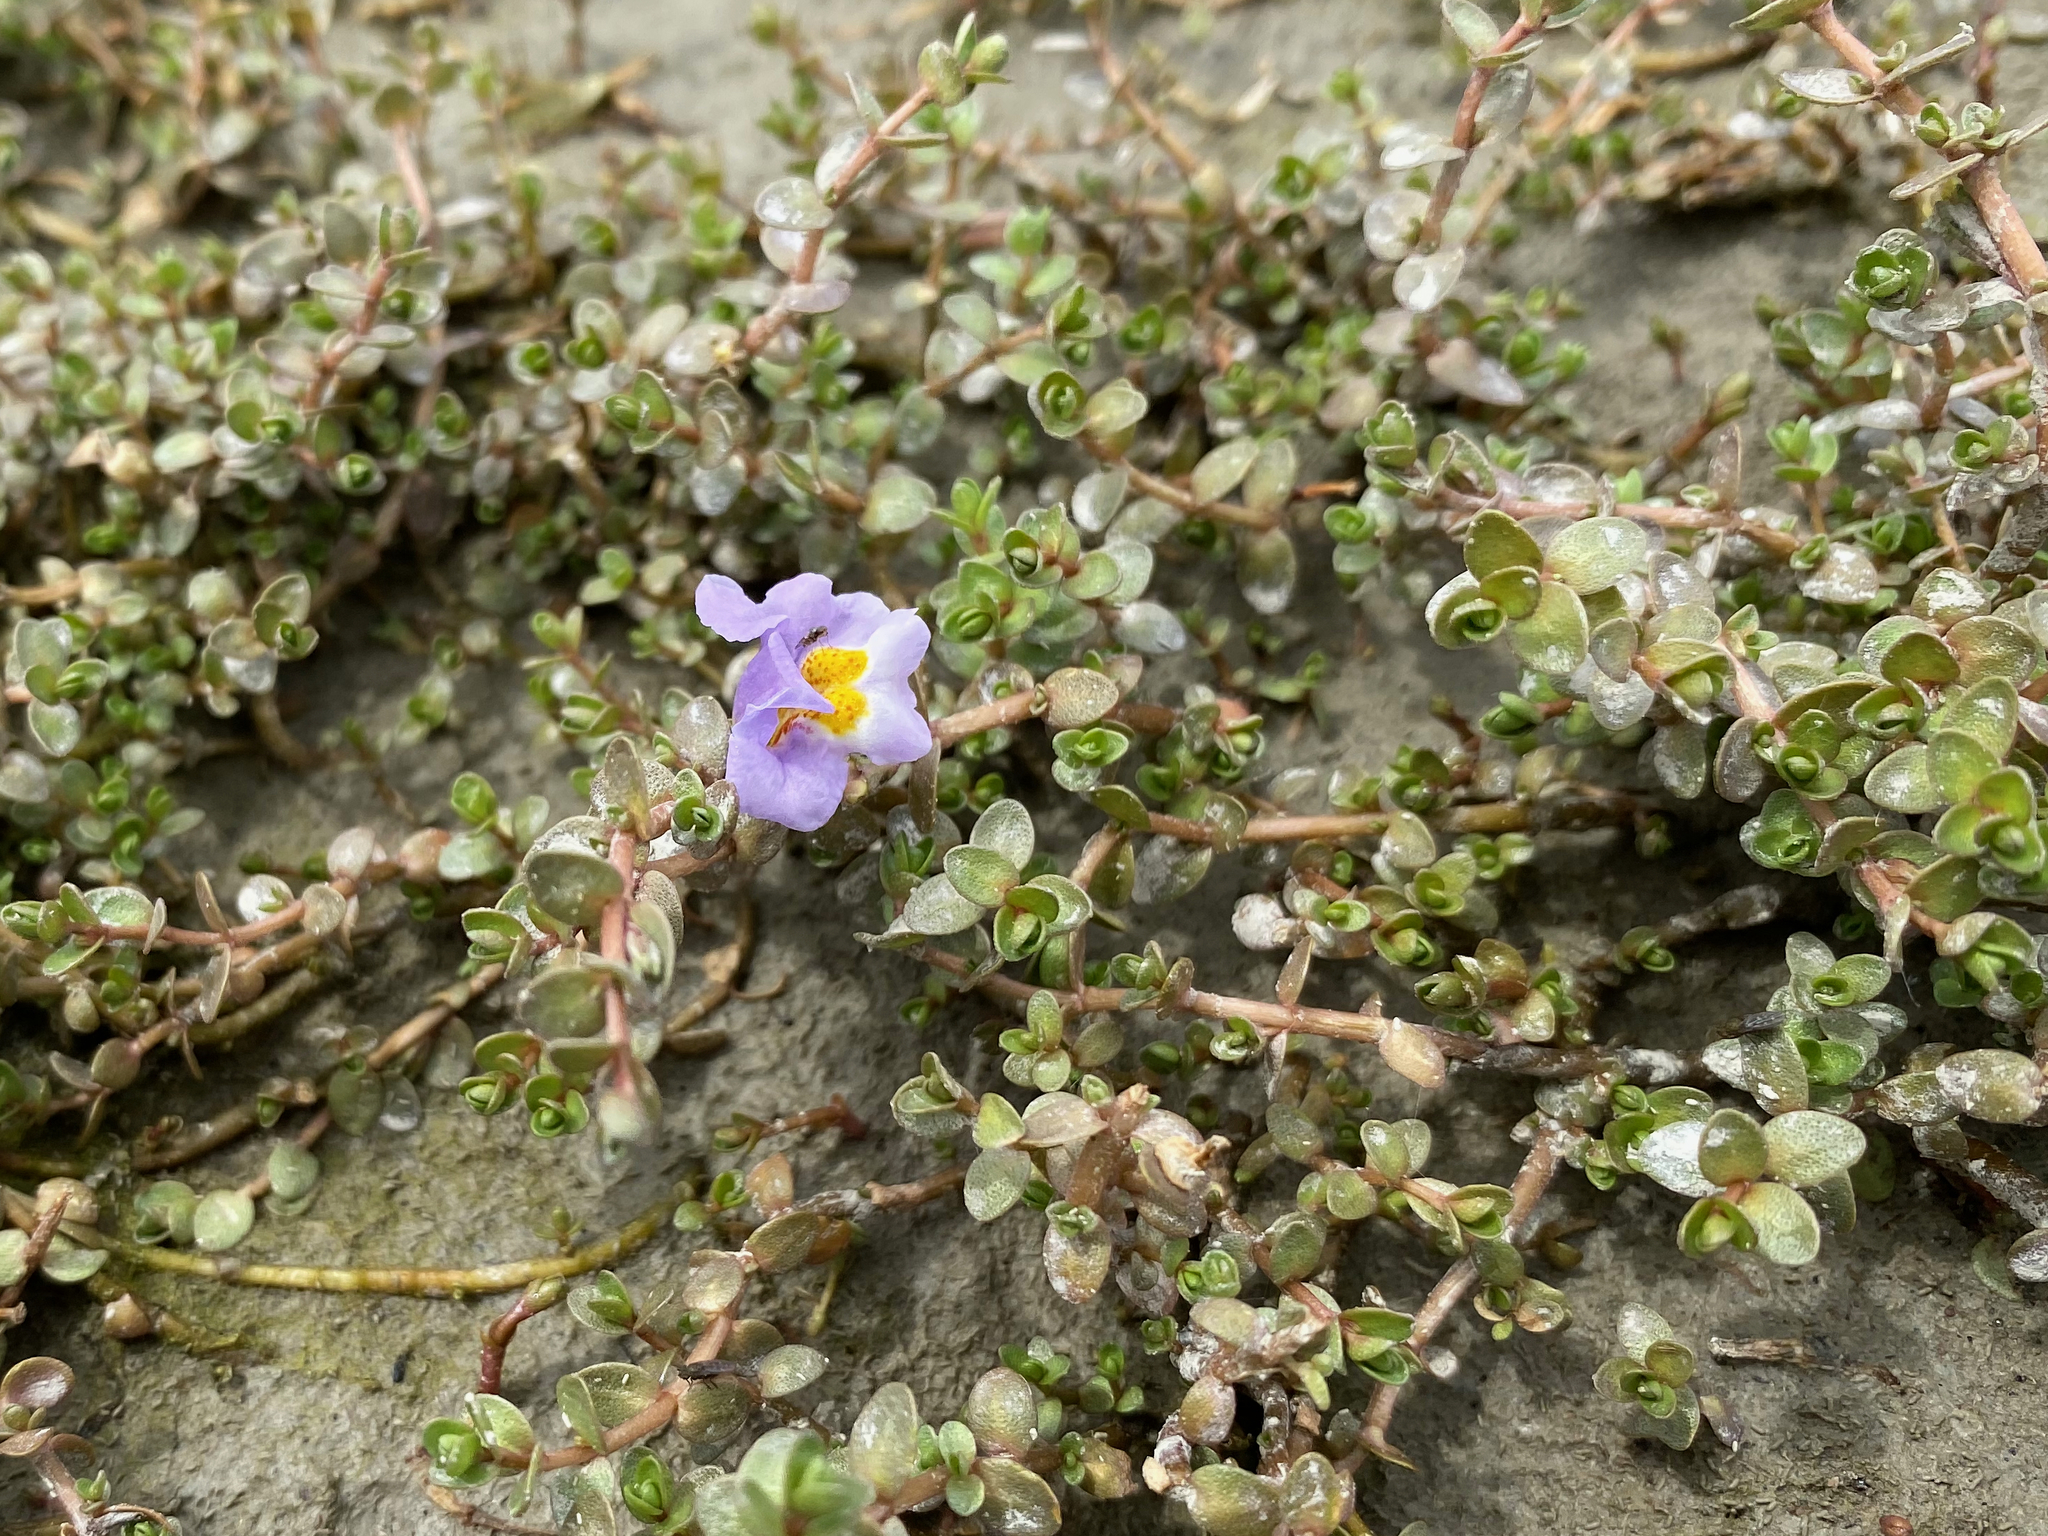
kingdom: Plantae
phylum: Tracheophyta
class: Magnoliopsida
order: Lamiales
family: Phrymaceae
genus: Thyridia
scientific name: Thyridia repens
